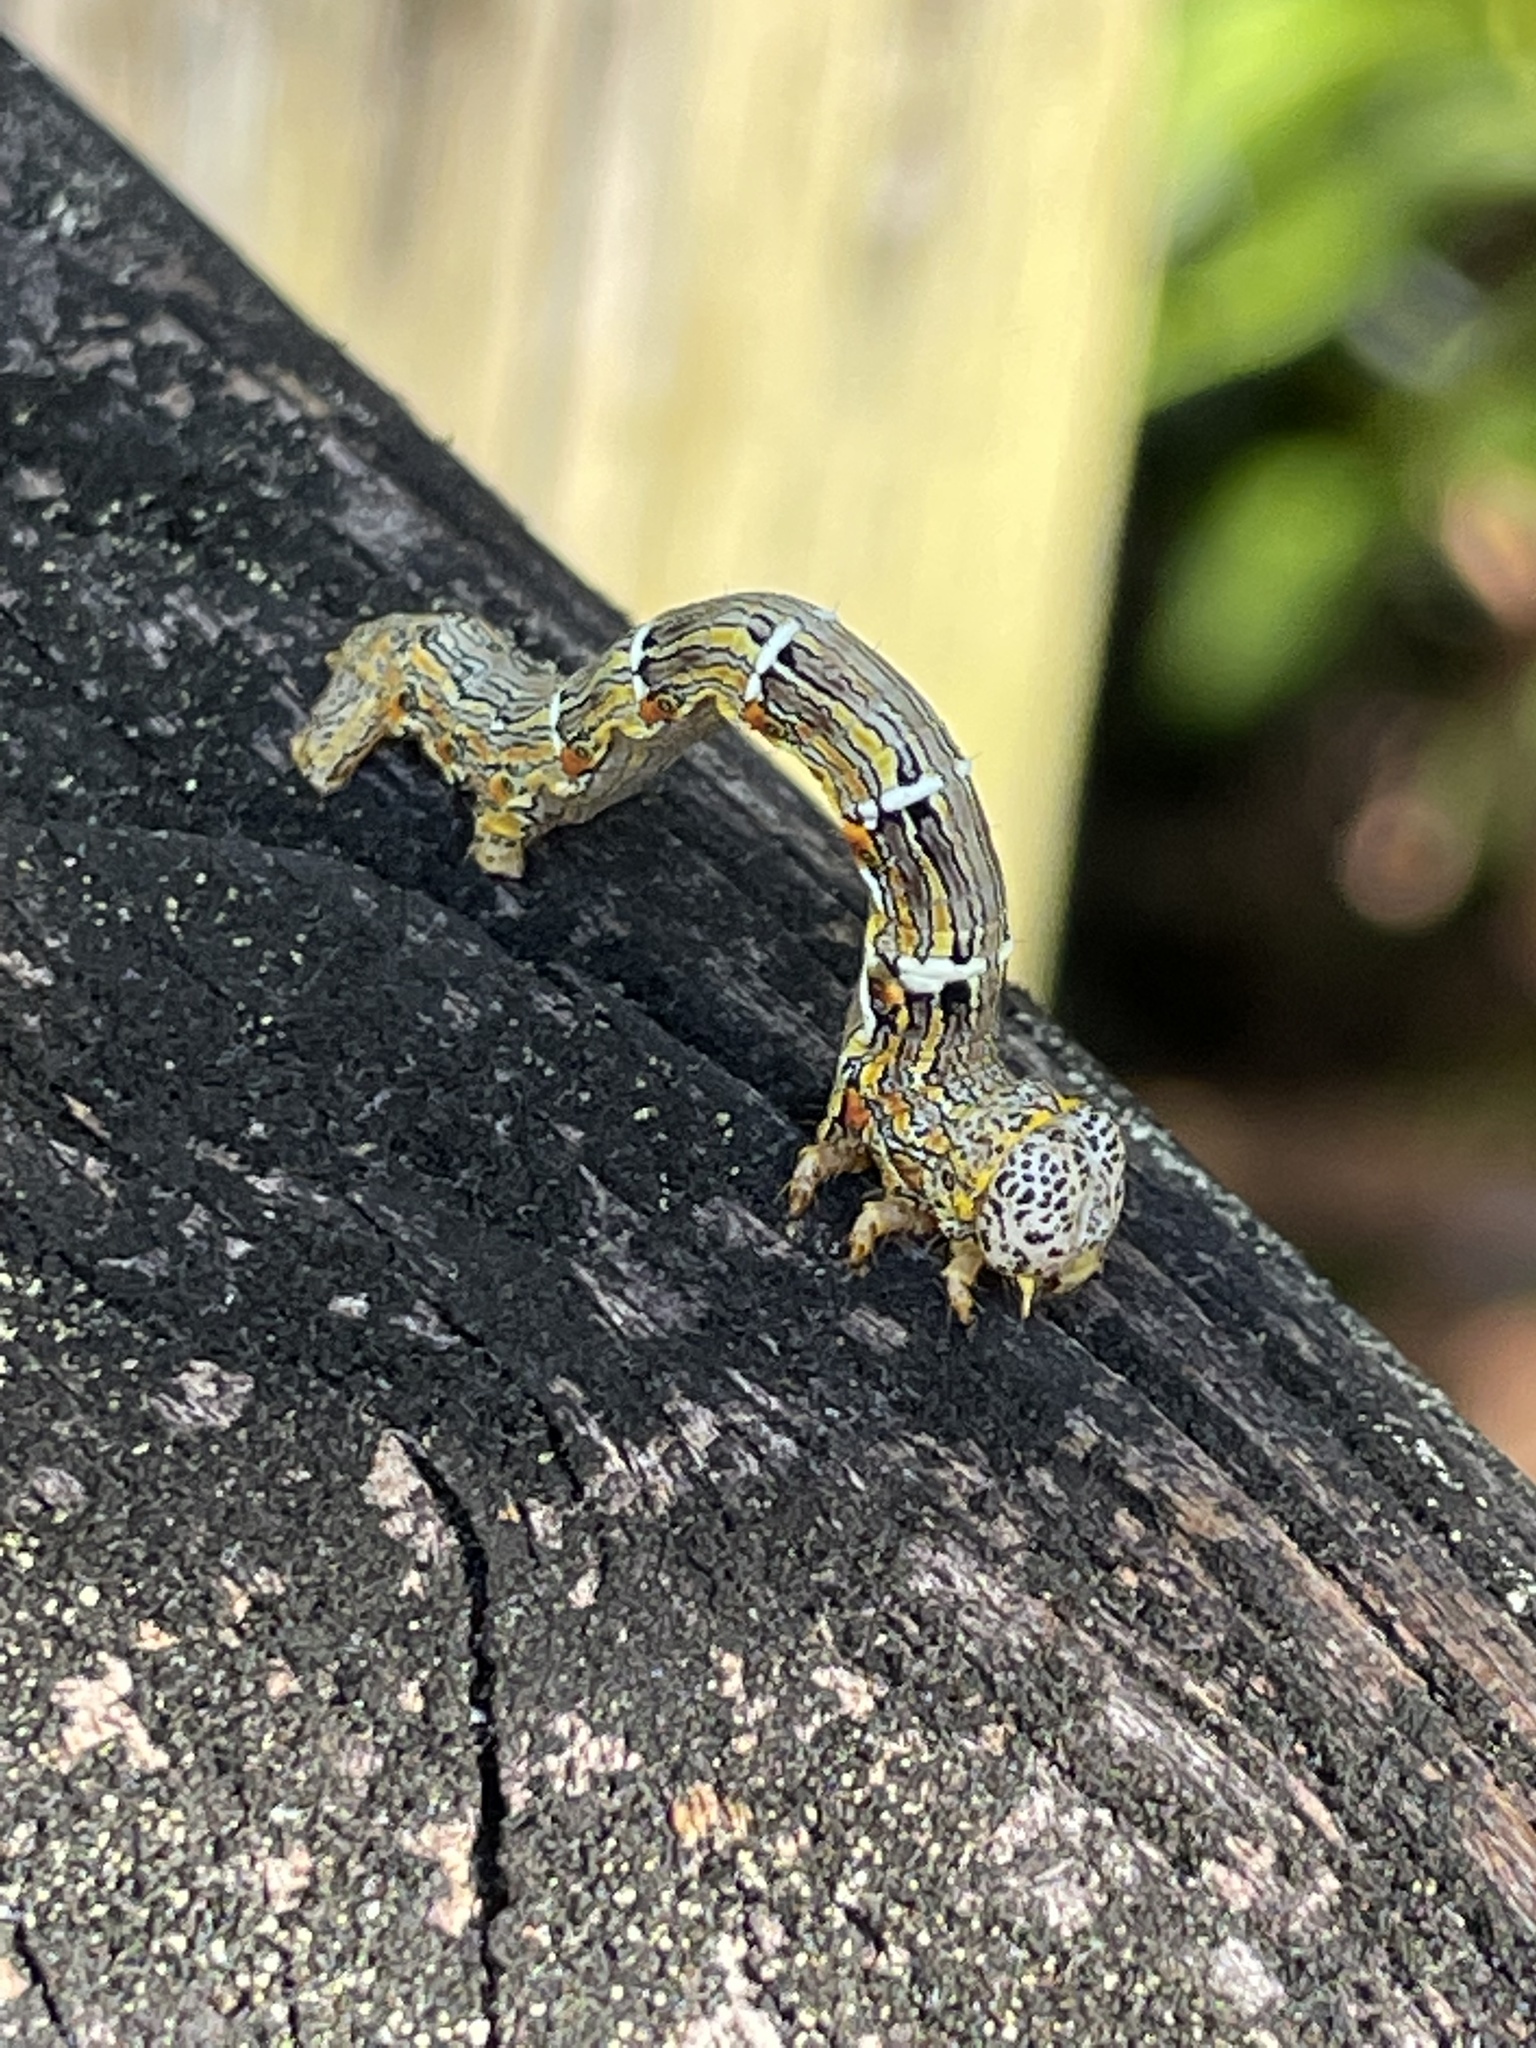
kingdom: Animalia
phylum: Arthropoda
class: Insecta
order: Lepidoptera
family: Geometridae
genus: Lycia
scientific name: Lycia ypsilon
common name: Wooly gray
